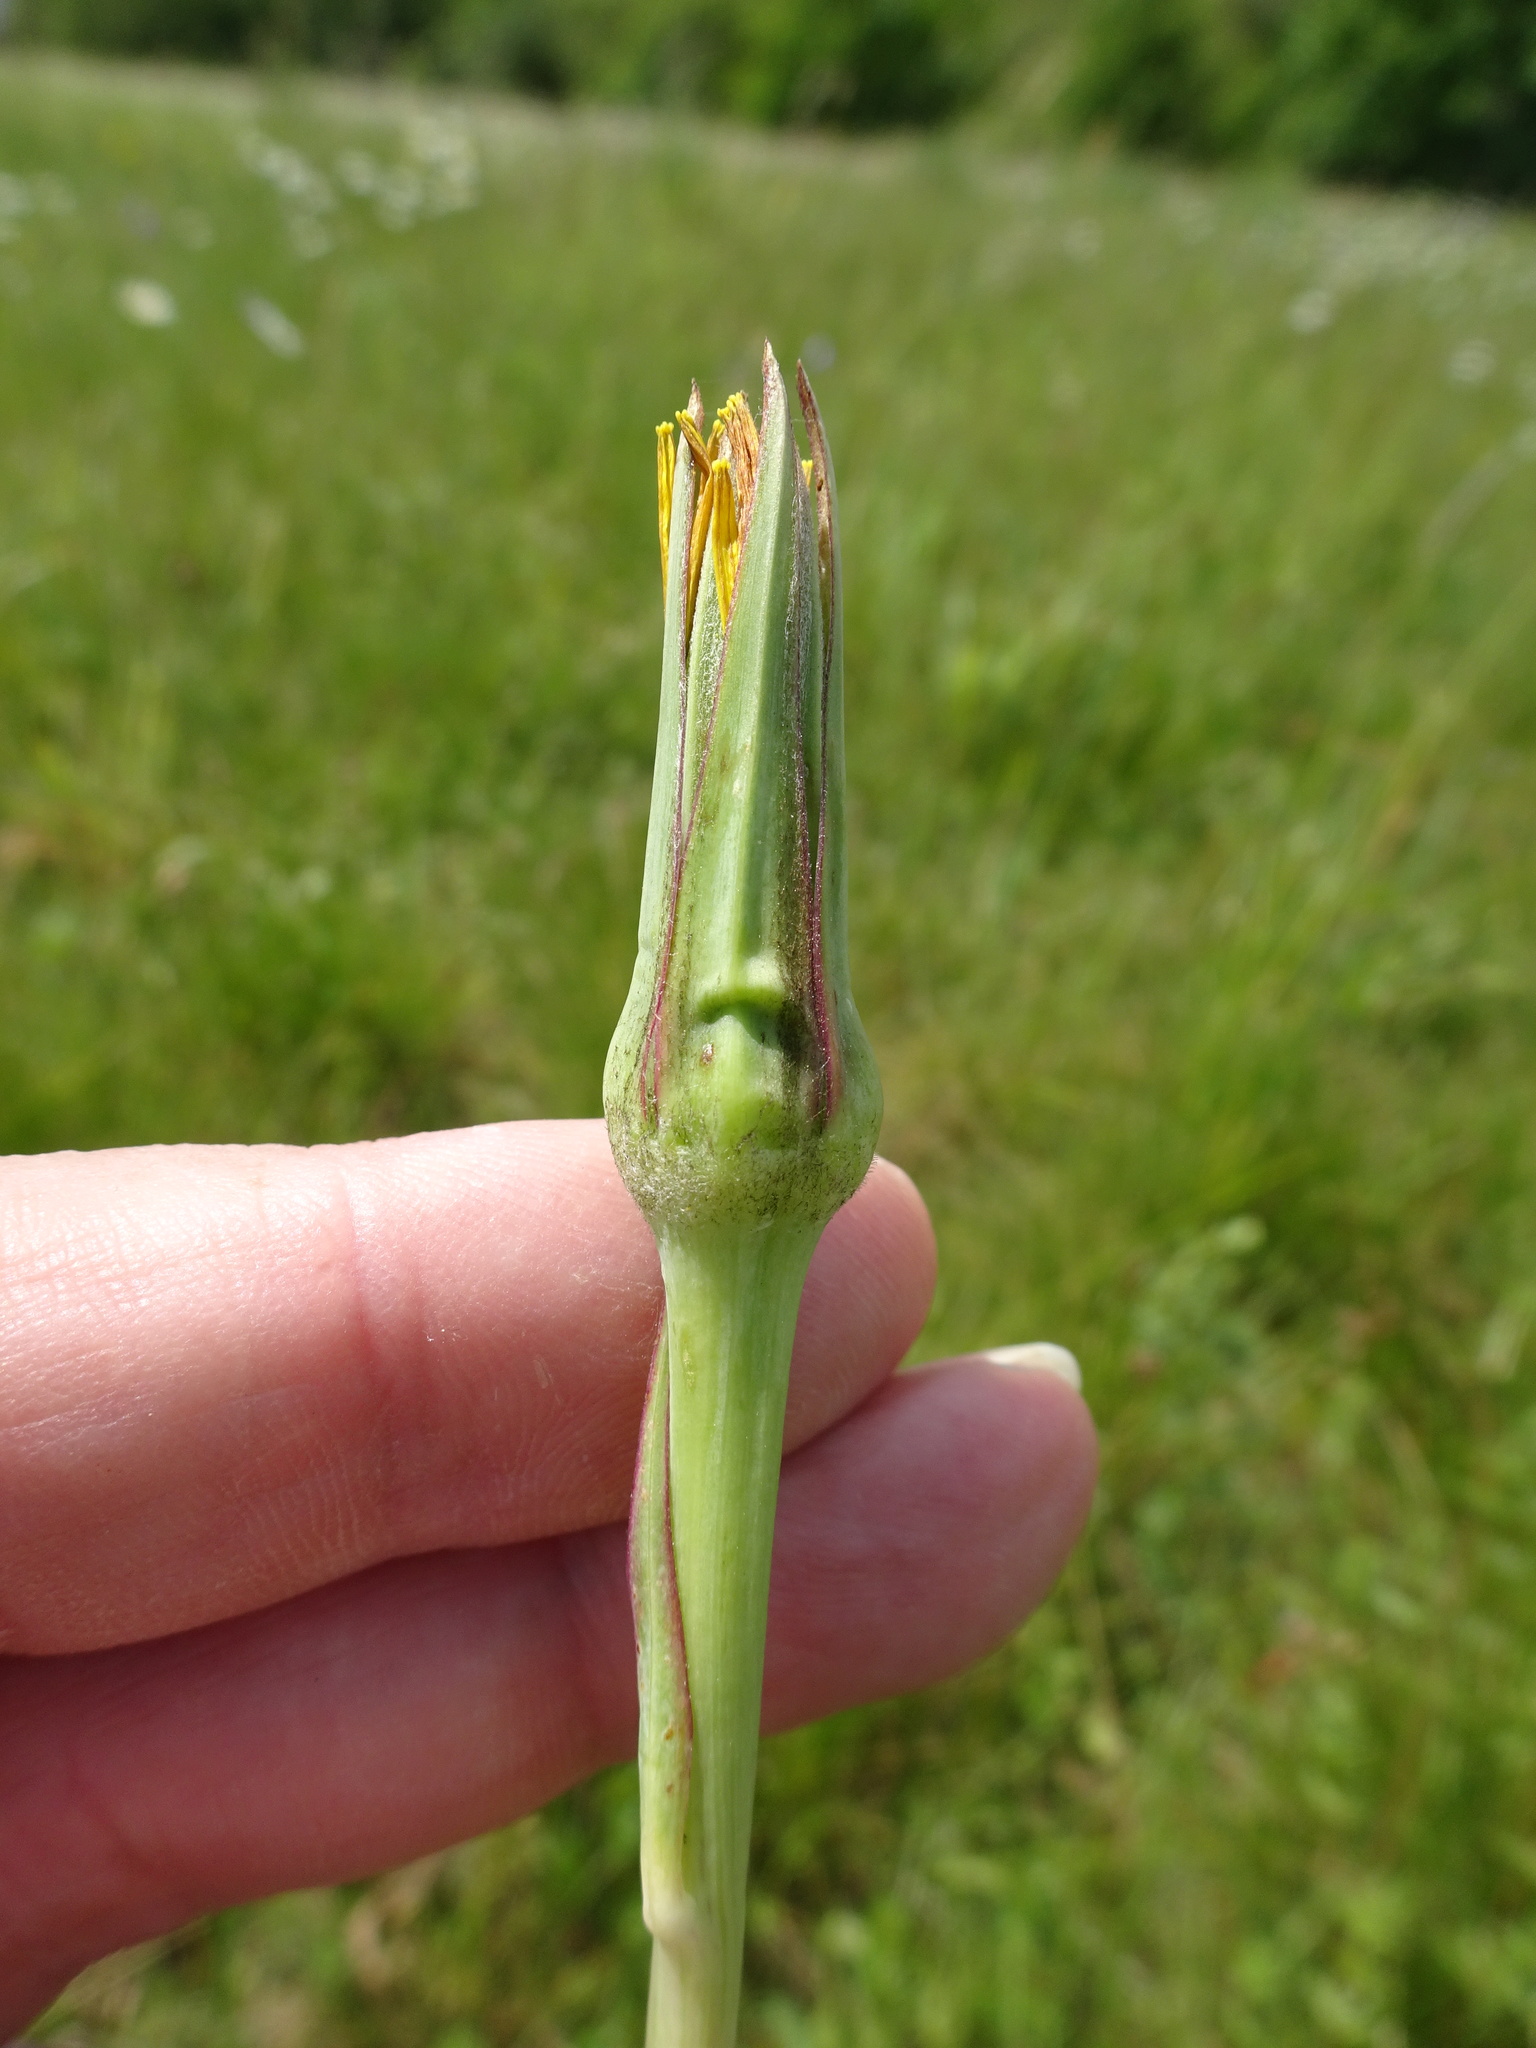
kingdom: Plantae
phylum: Tracheophyta
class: Magnoliopsida
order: Asterales
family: Asteraceae
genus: Tragopogon
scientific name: Tragopogon dubius
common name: Yellow salsify
